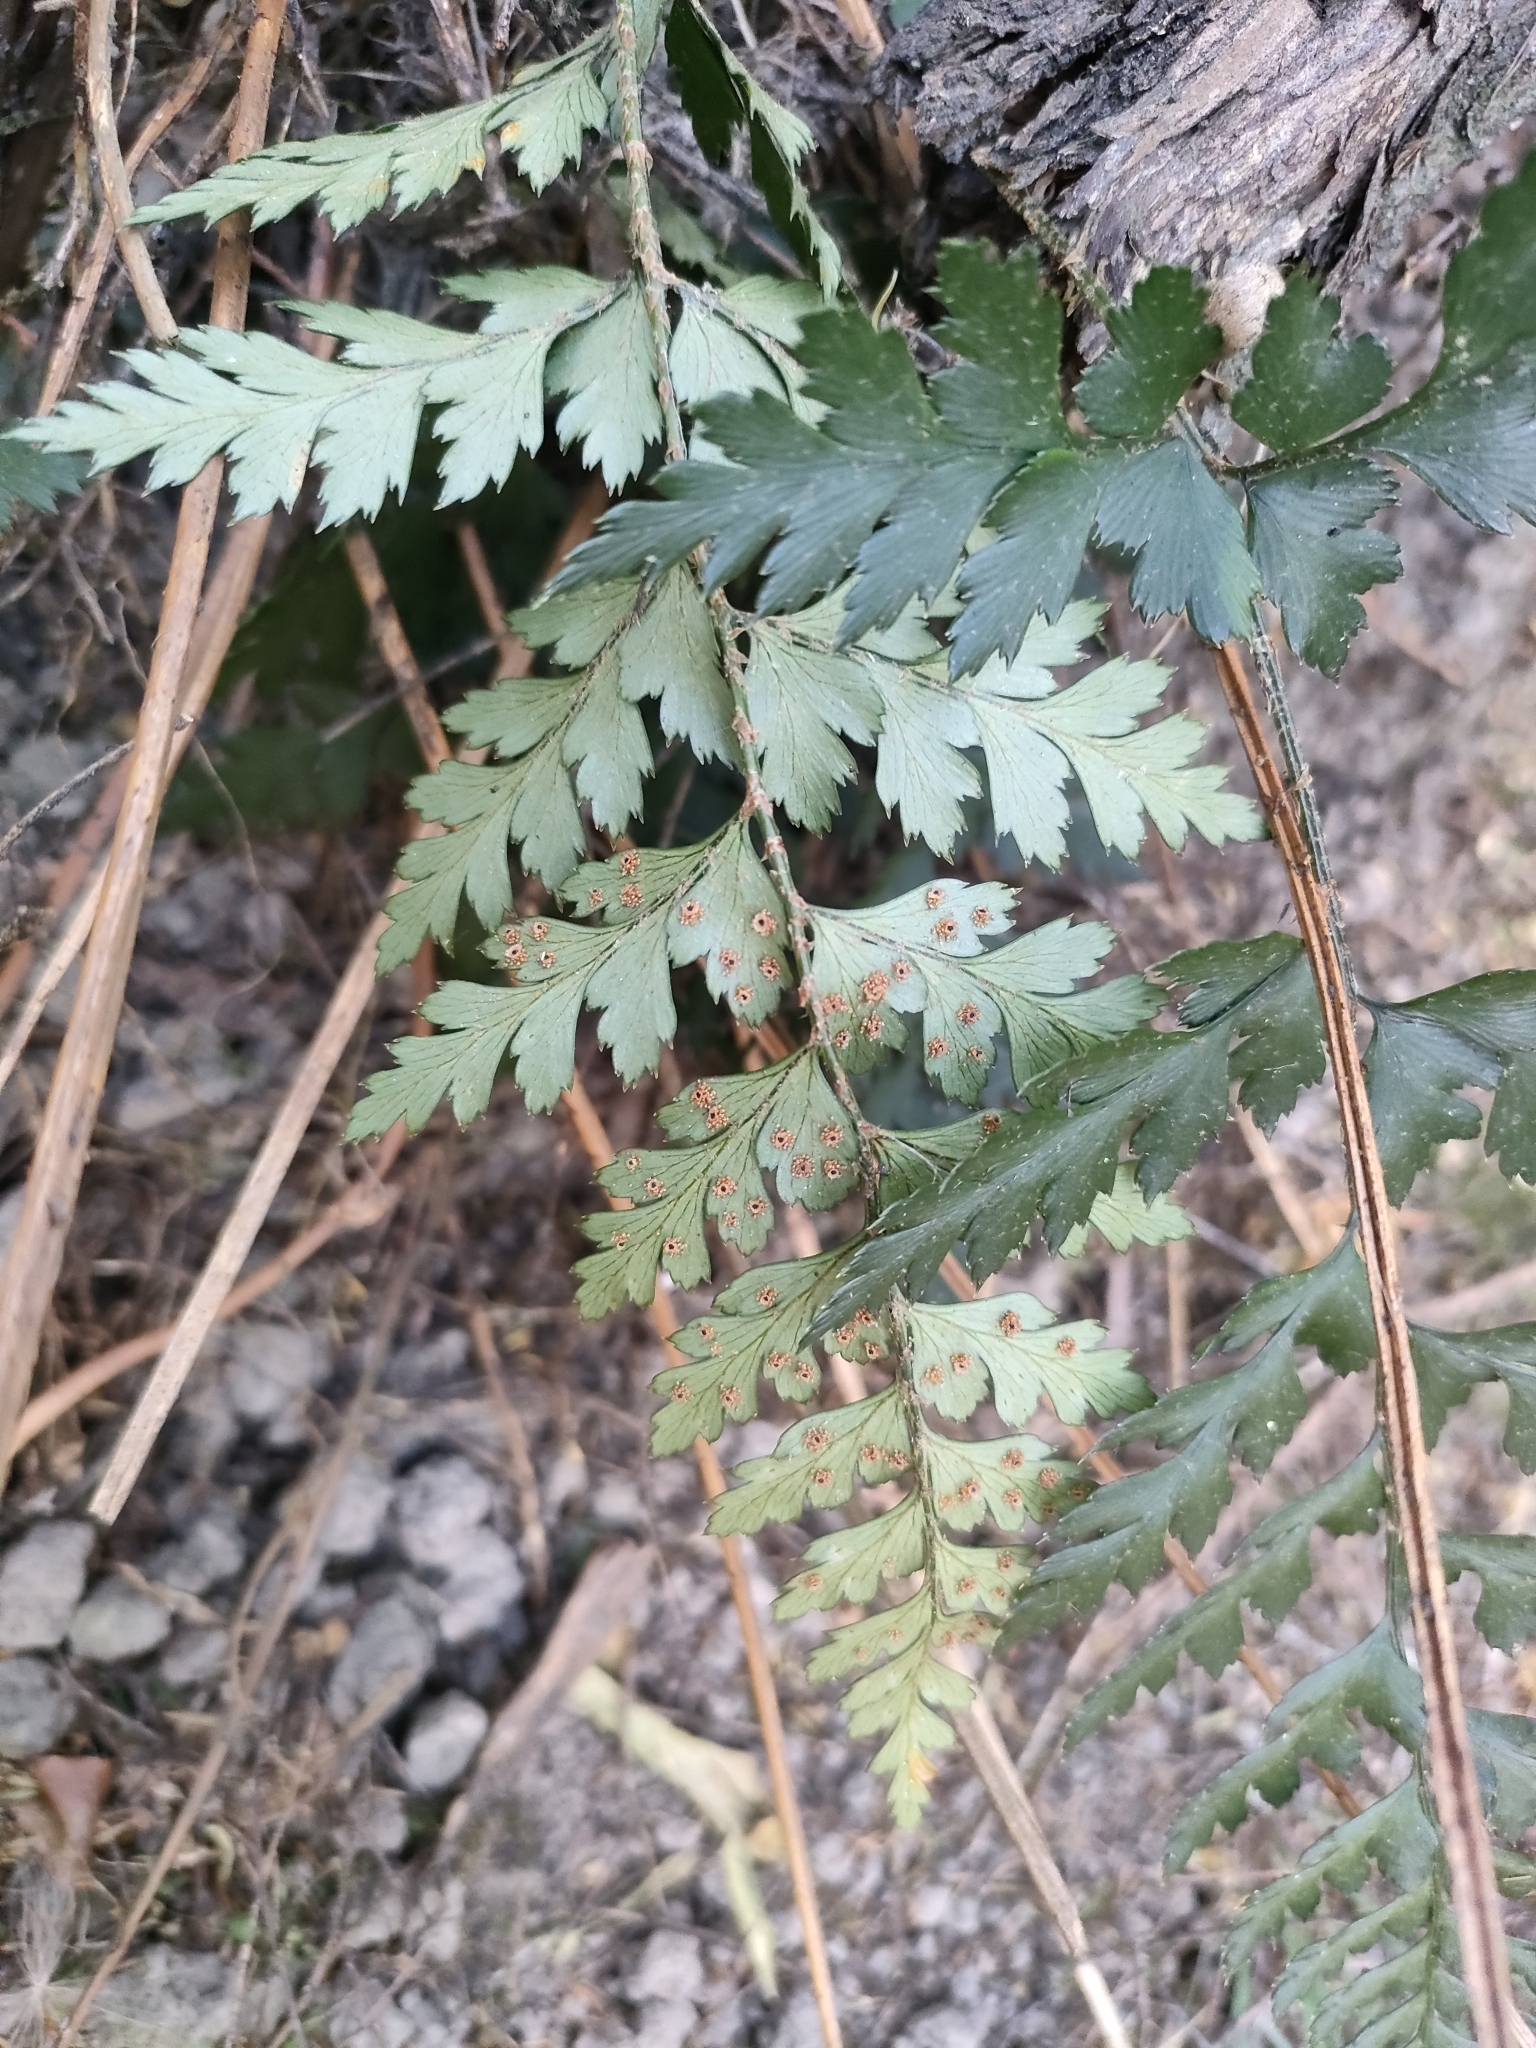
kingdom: Plantae
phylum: Tracheophyta
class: Polypodiopsida
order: Polypodiales
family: Dryopteridaceae
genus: Polystichum
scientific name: Polystichum oculatum
